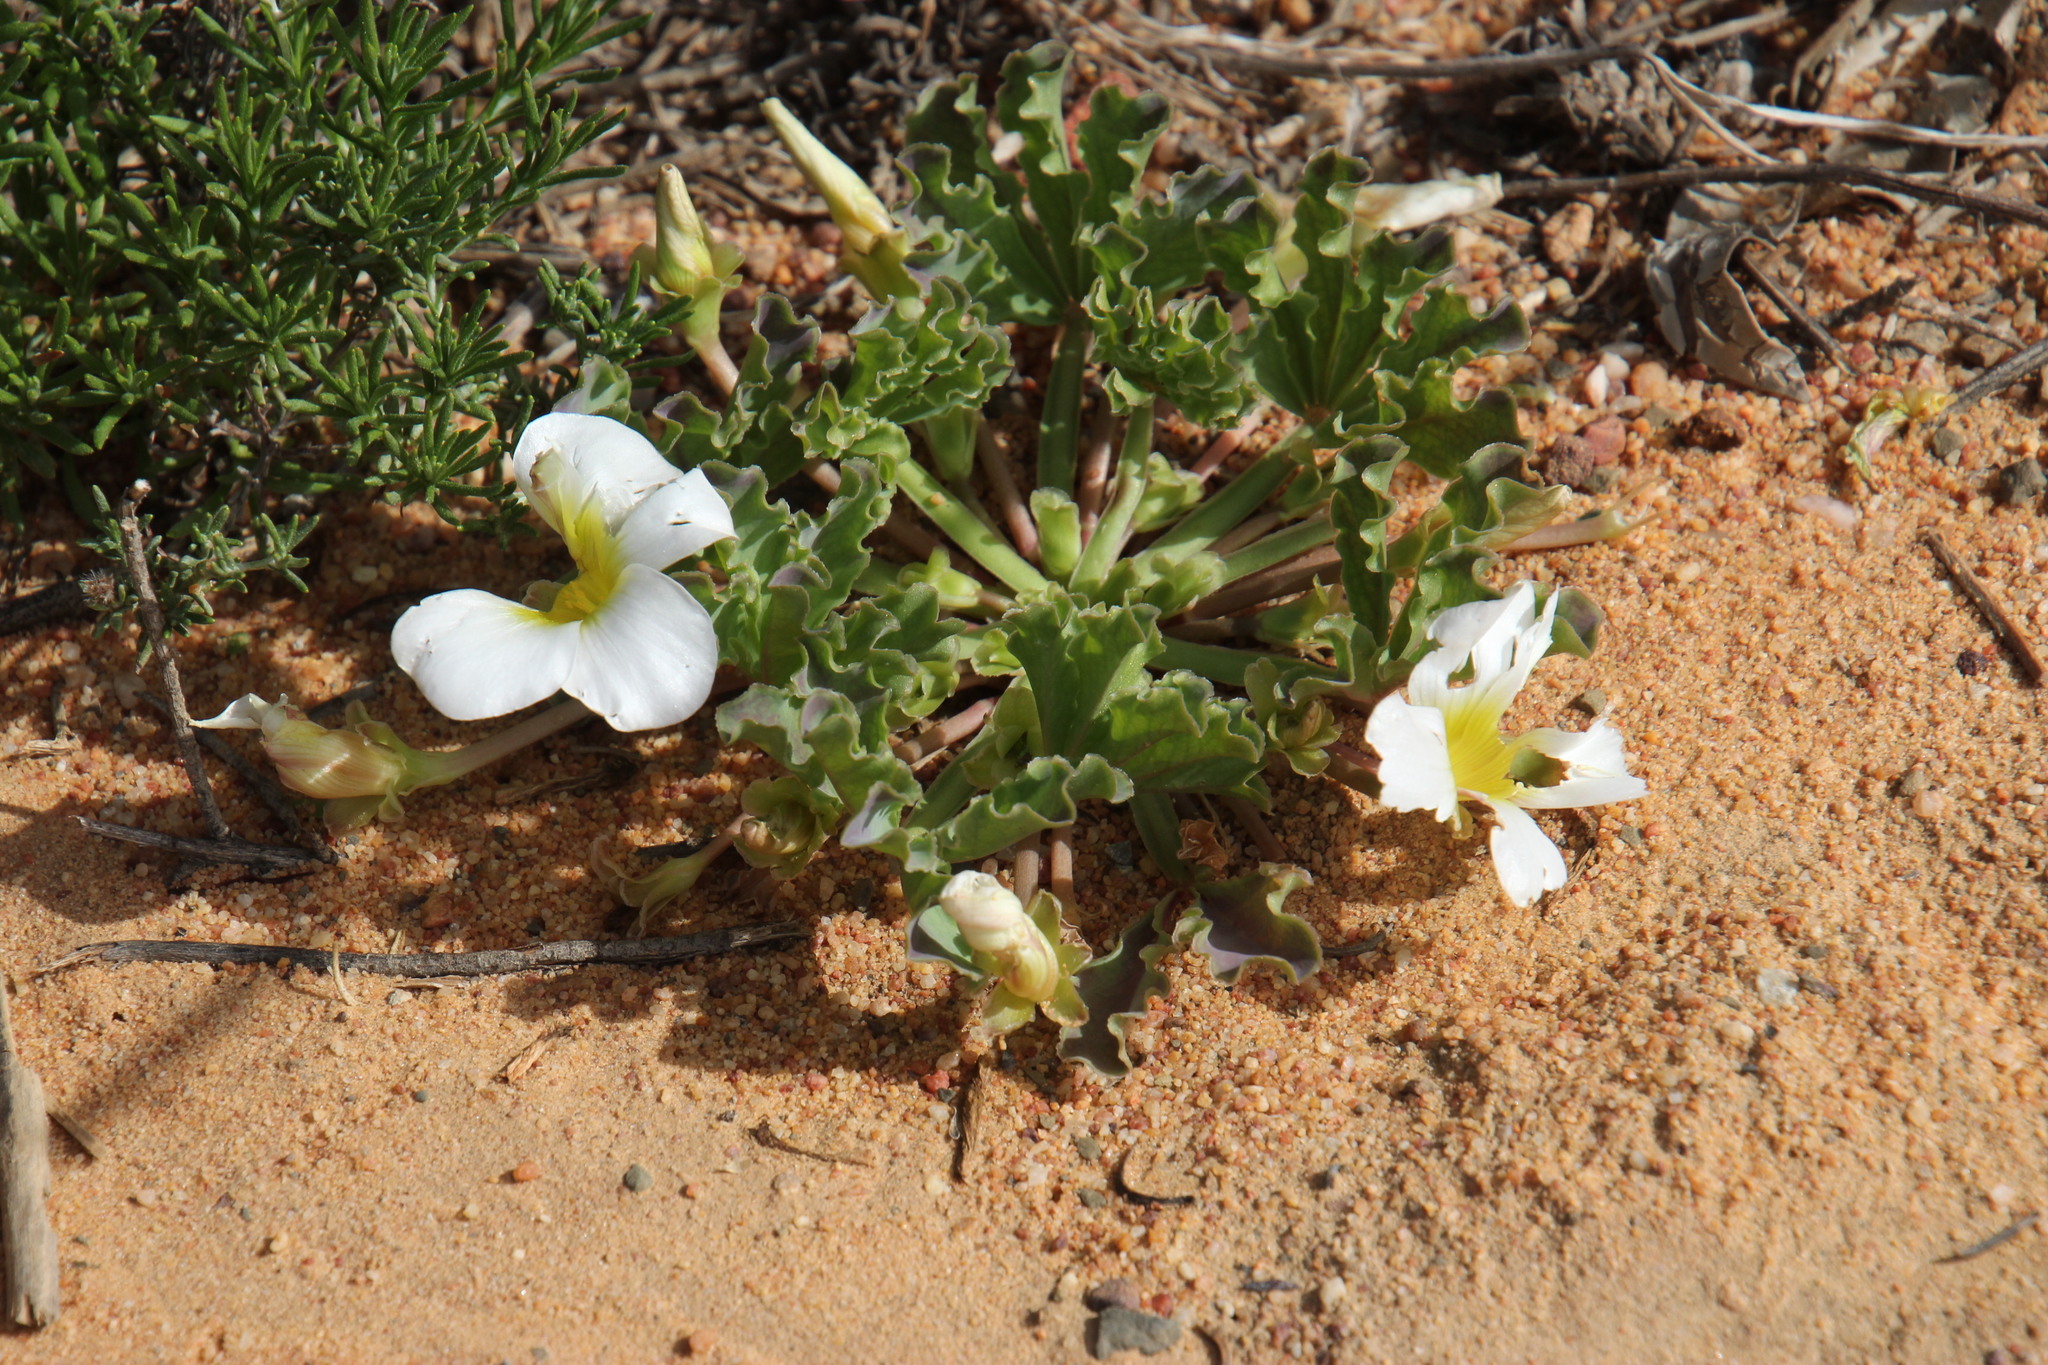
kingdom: Plantae
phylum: Tracheophyta
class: Magnoliopsida
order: Oxalidales
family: Oxalidaceae
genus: Oxalis
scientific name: Oxalis flava
